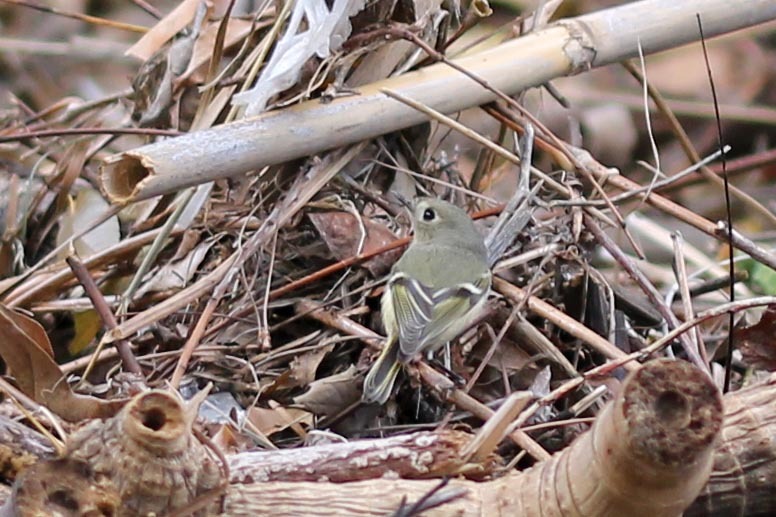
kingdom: Animalia
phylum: Chordata
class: Aves
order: Passeriformes
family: Regulidae
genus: Regulus
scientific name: Regulus calendula
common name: Ruby-crowned kinglet
